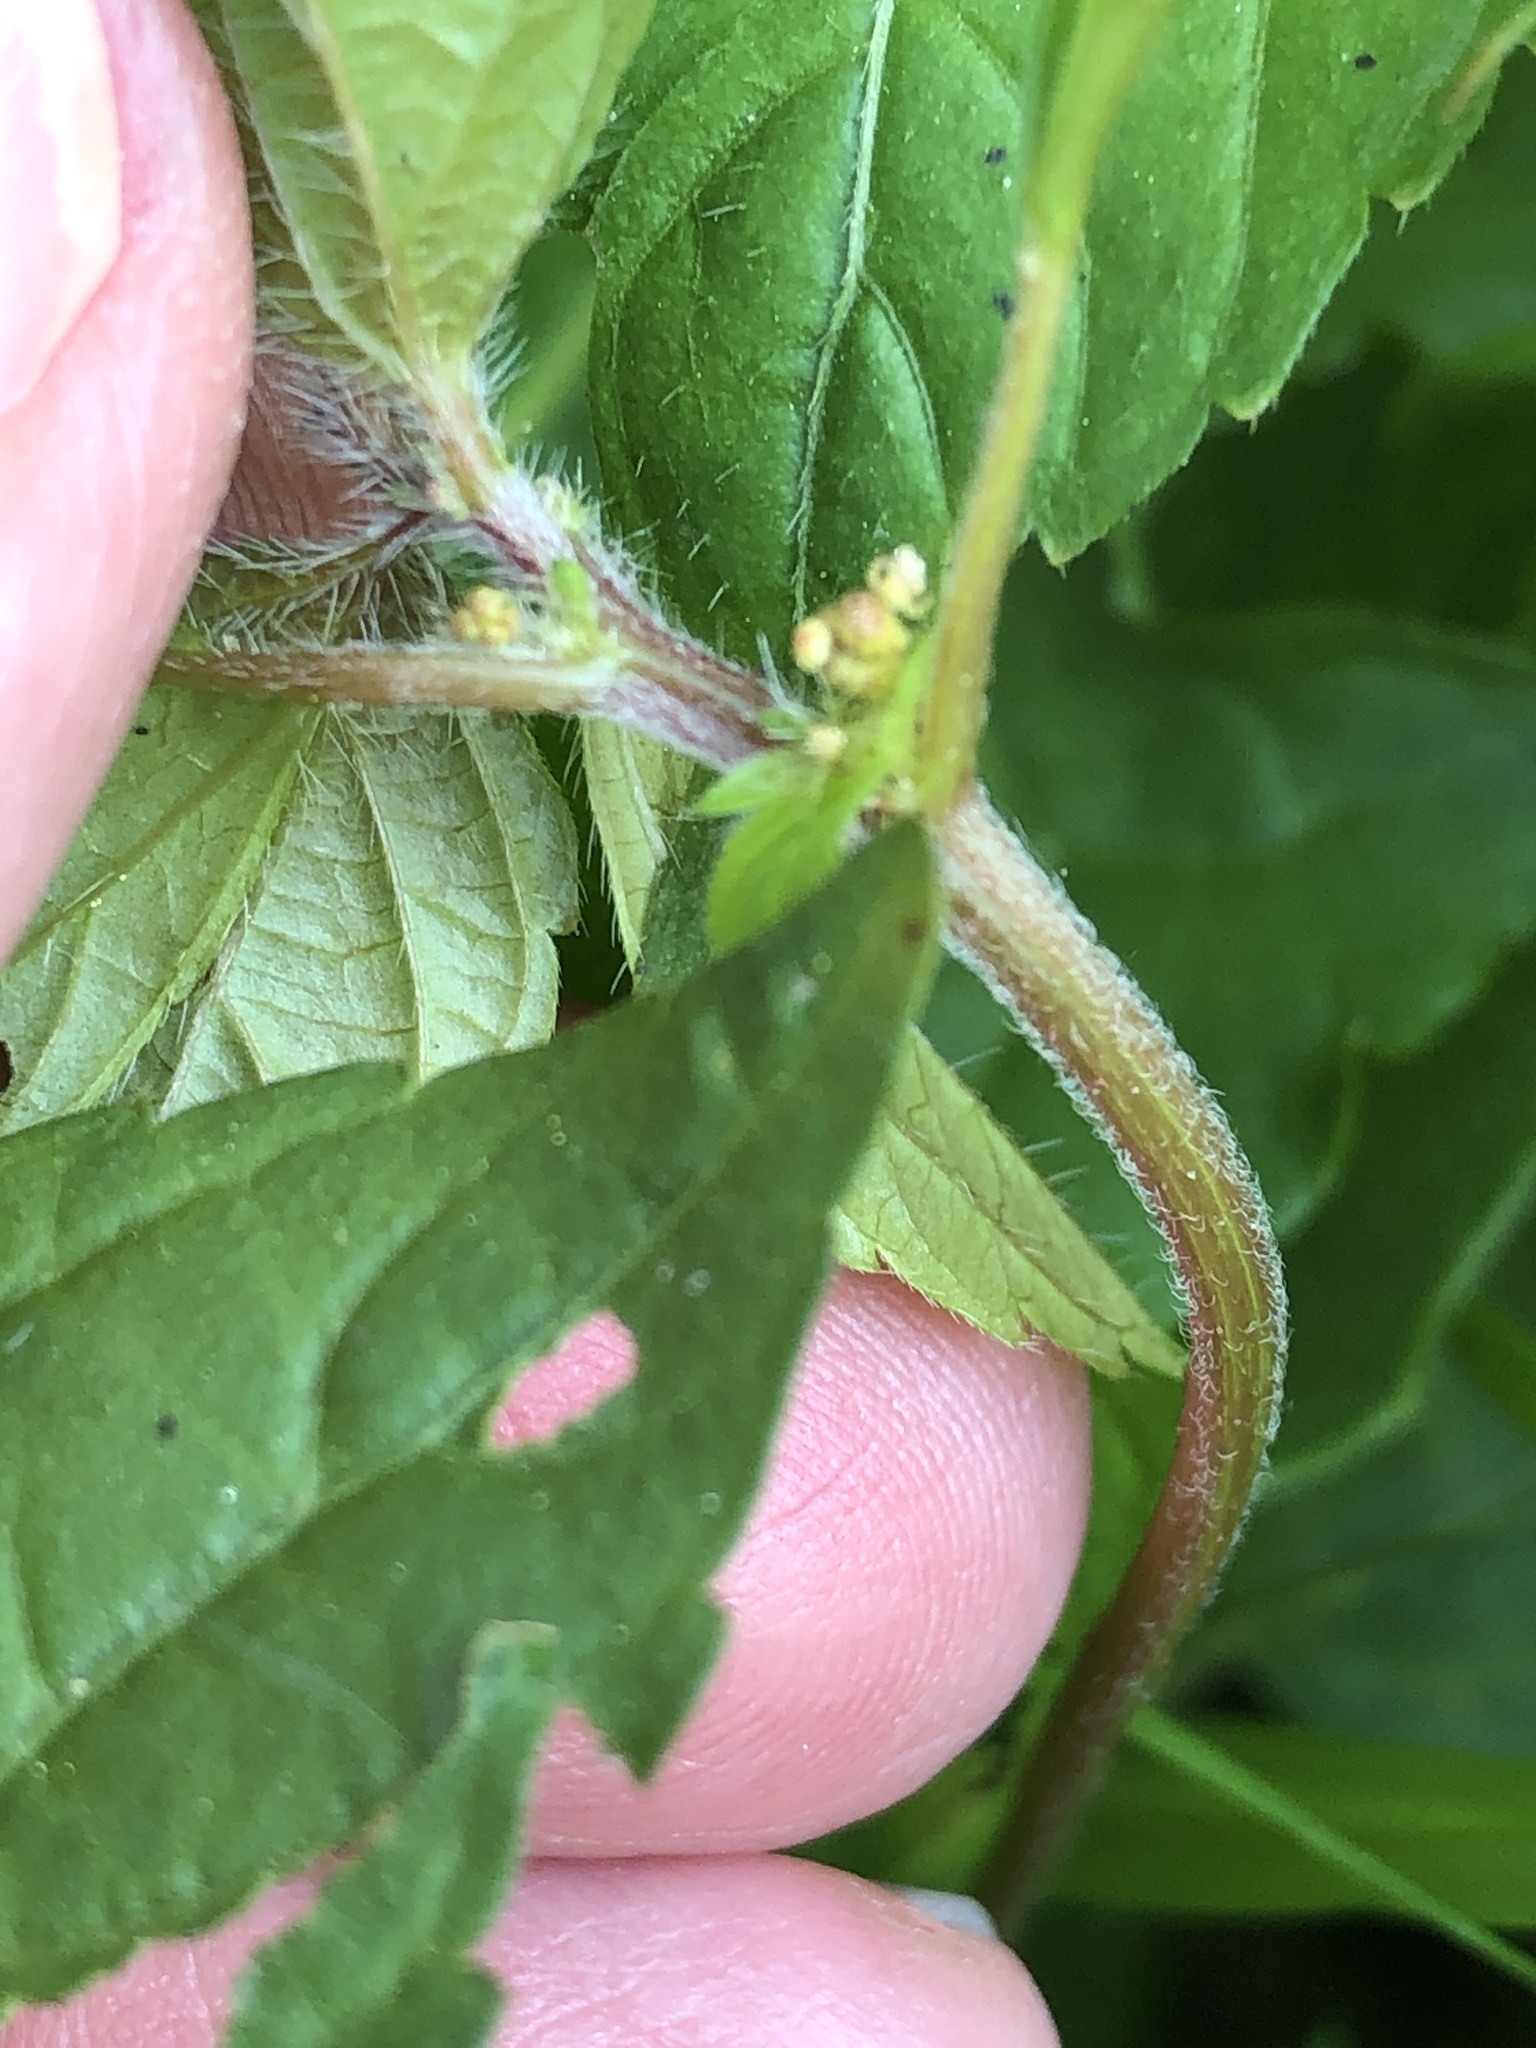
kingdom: Plantae
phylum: Tracheophyta
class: Magnoliopsida
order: Malpighiales
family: Euphorbiaceae
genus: Acalypha
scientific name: Acalypha rhomboidea
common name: Rhombic copperleaf
